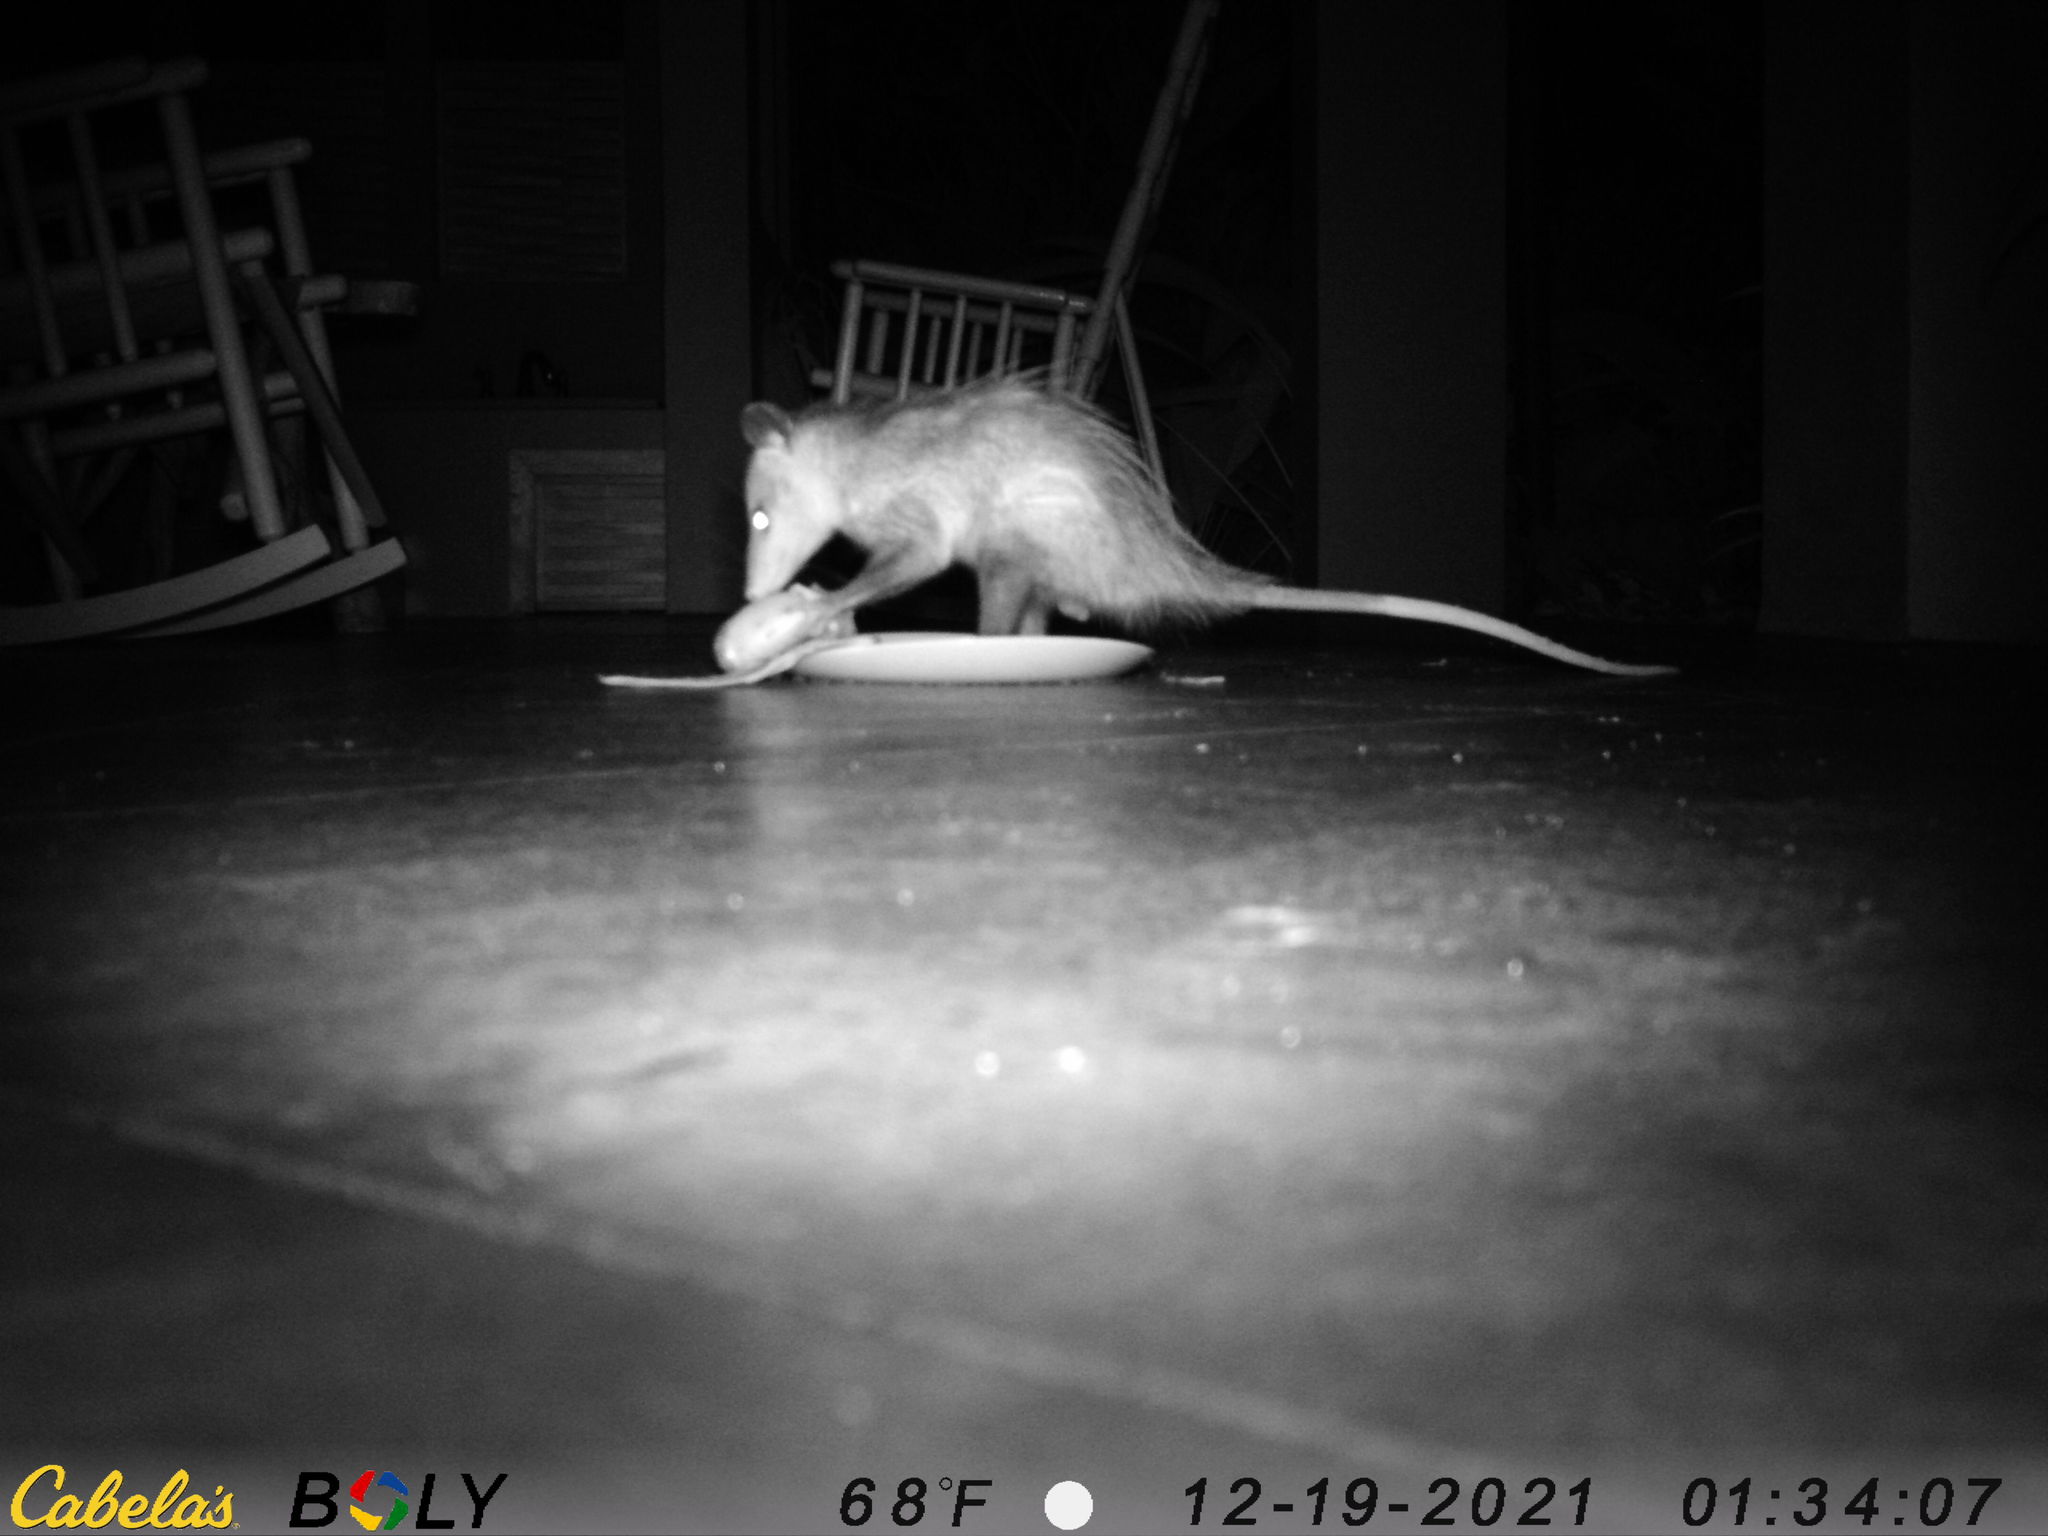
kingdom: Animalia
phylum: Chordata
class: Mammalia
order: Didelphimorphia
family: Didelphidae
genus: Didelphis
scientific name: Didelphis marsupialis
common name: Common opossum
